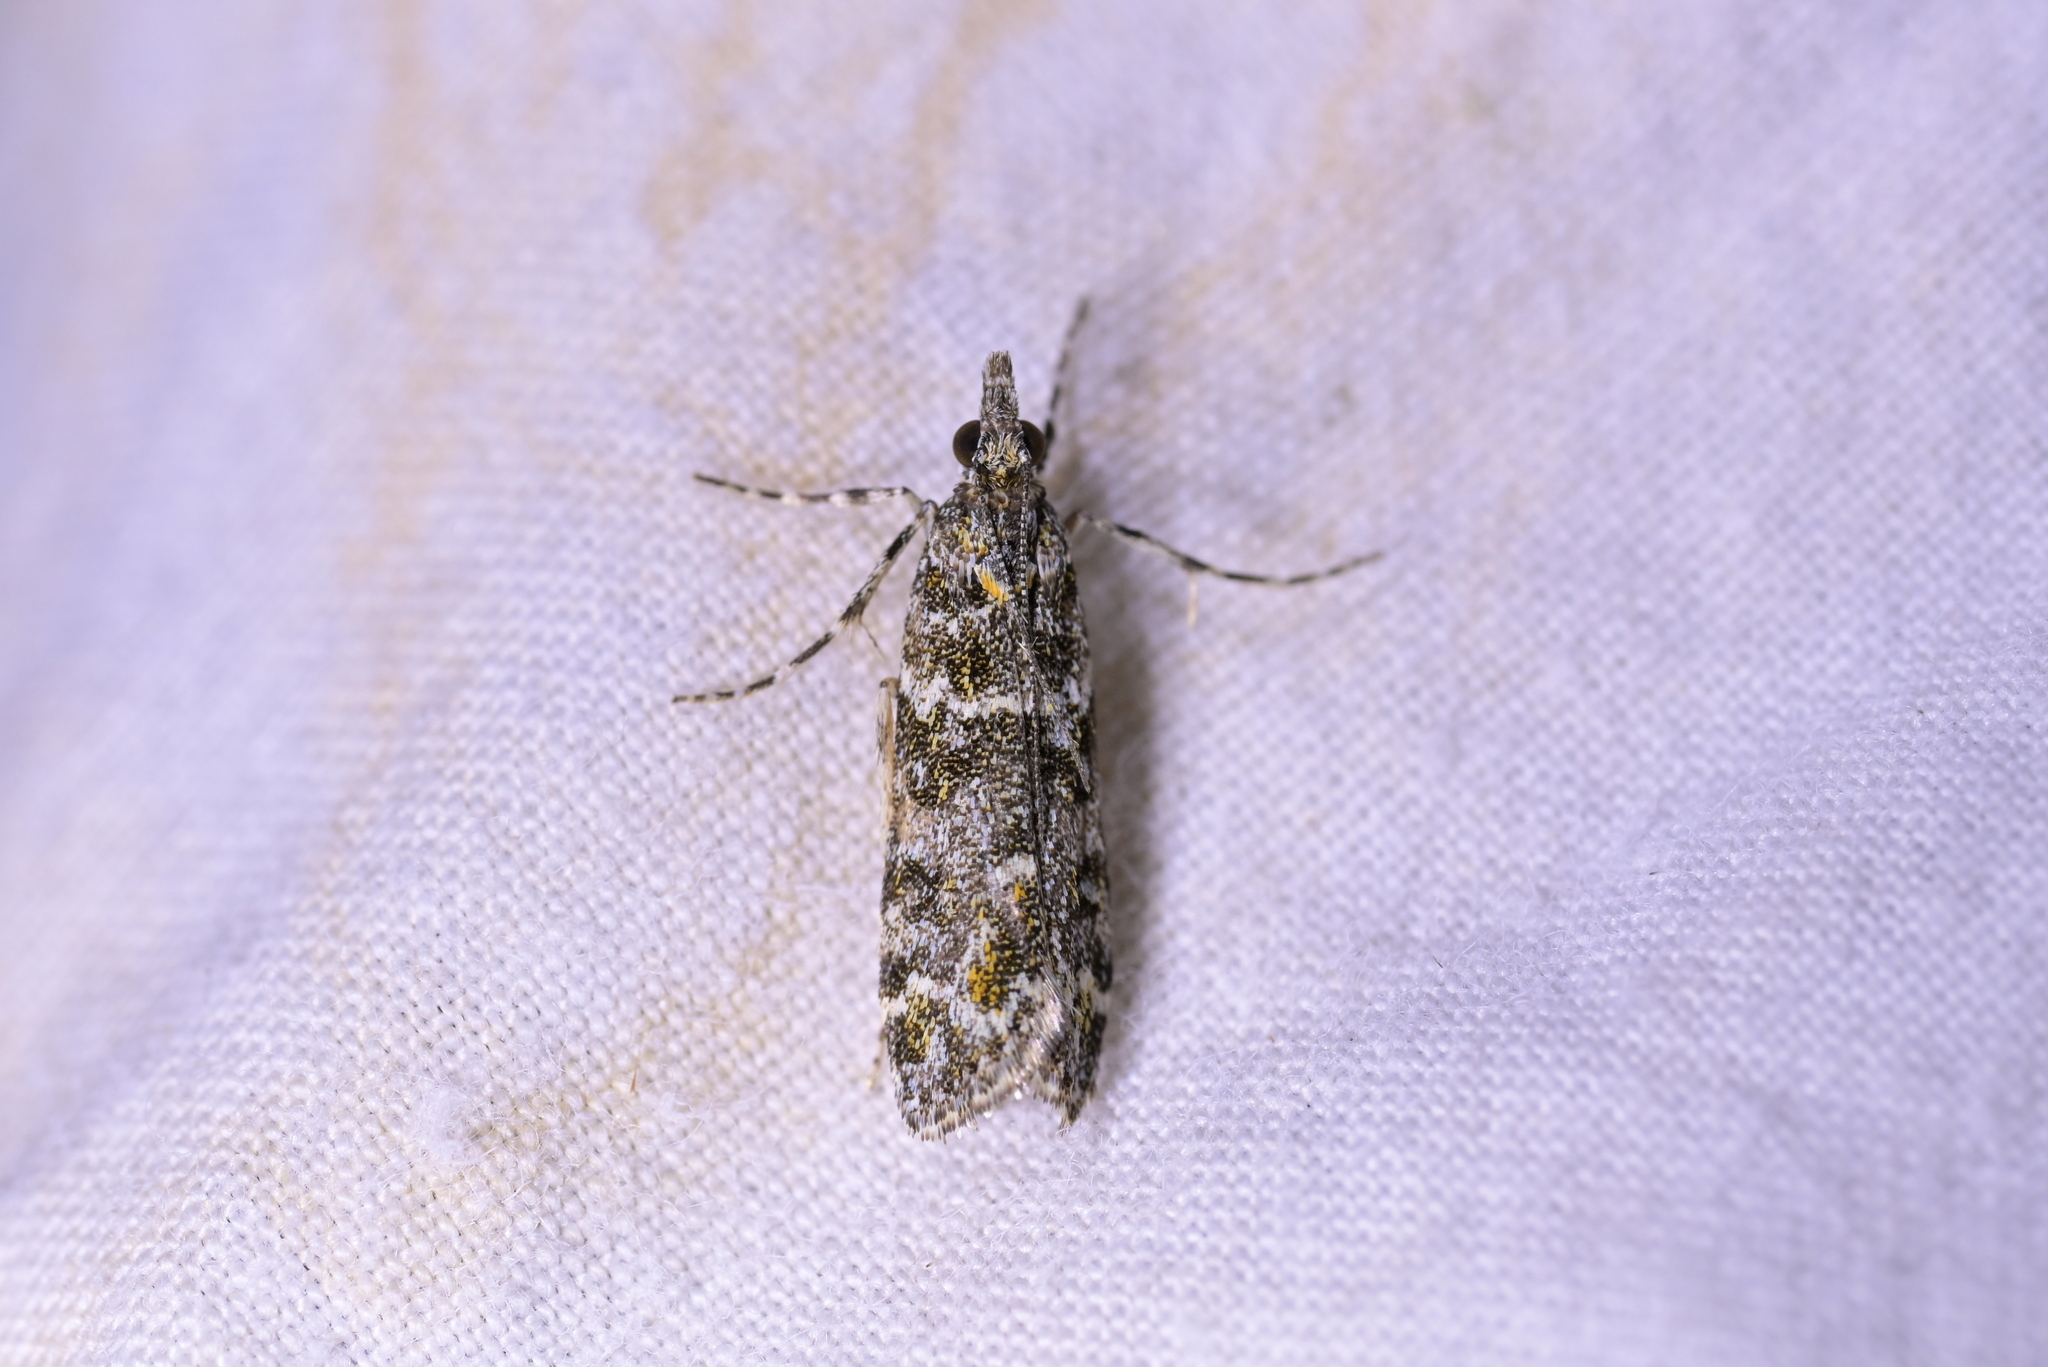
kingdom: Animalia
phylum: Arthropoda
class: Insecta
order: Lepidoptera
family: Crambidae
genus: Eudonia
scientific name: Eudonia
